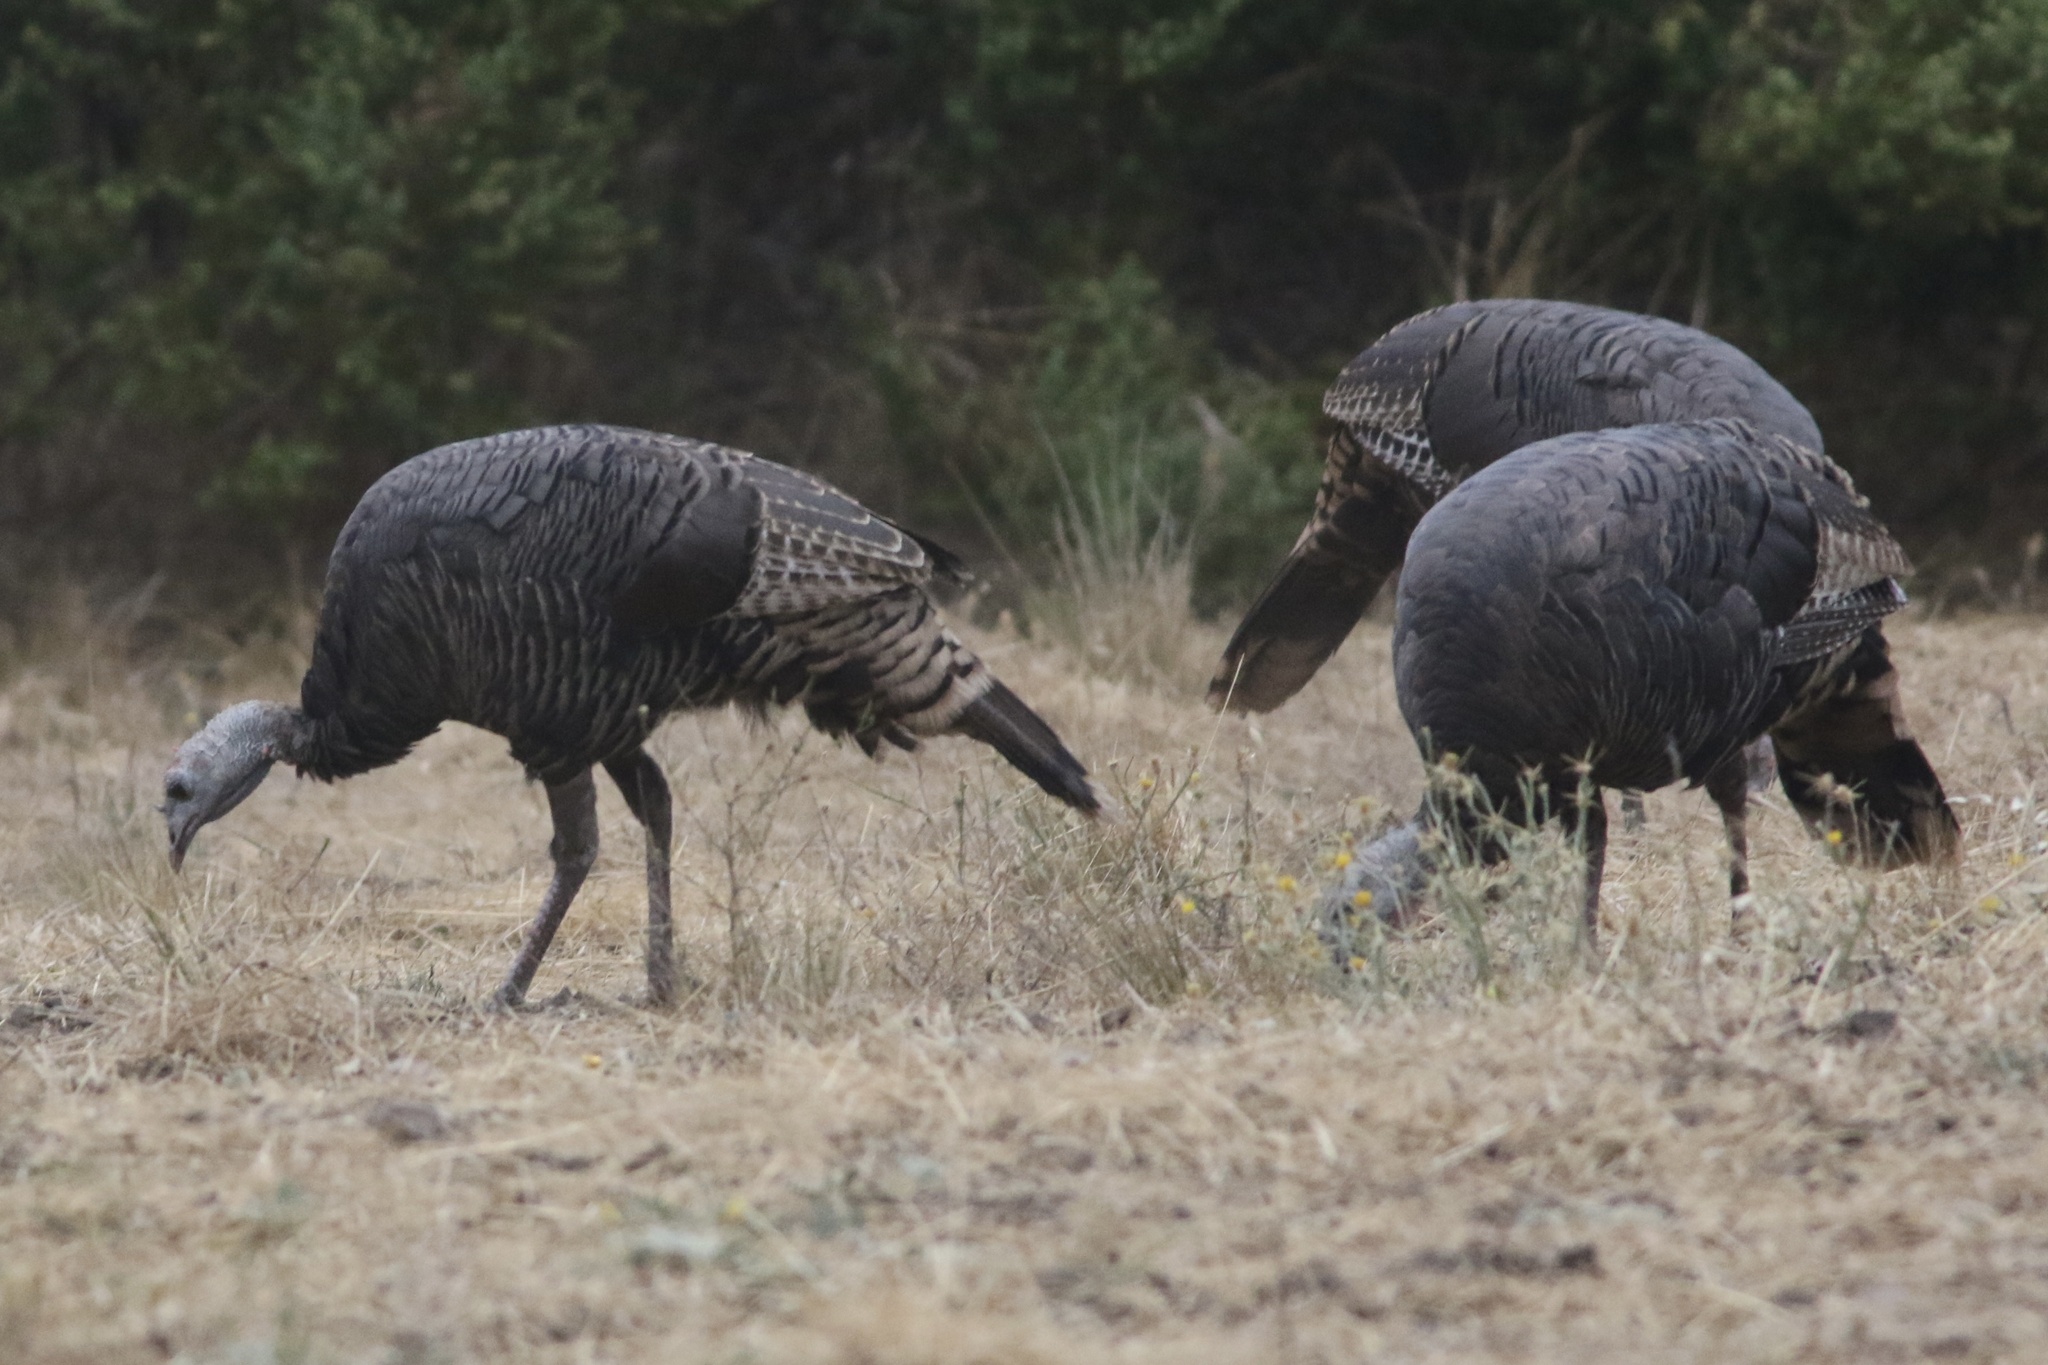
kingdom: Animalia
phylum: Chordata
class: Aves
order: Galliformes
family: Phasianidae
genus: Meleagris
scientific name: Meleagris gallopavo
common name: Wild turkey
